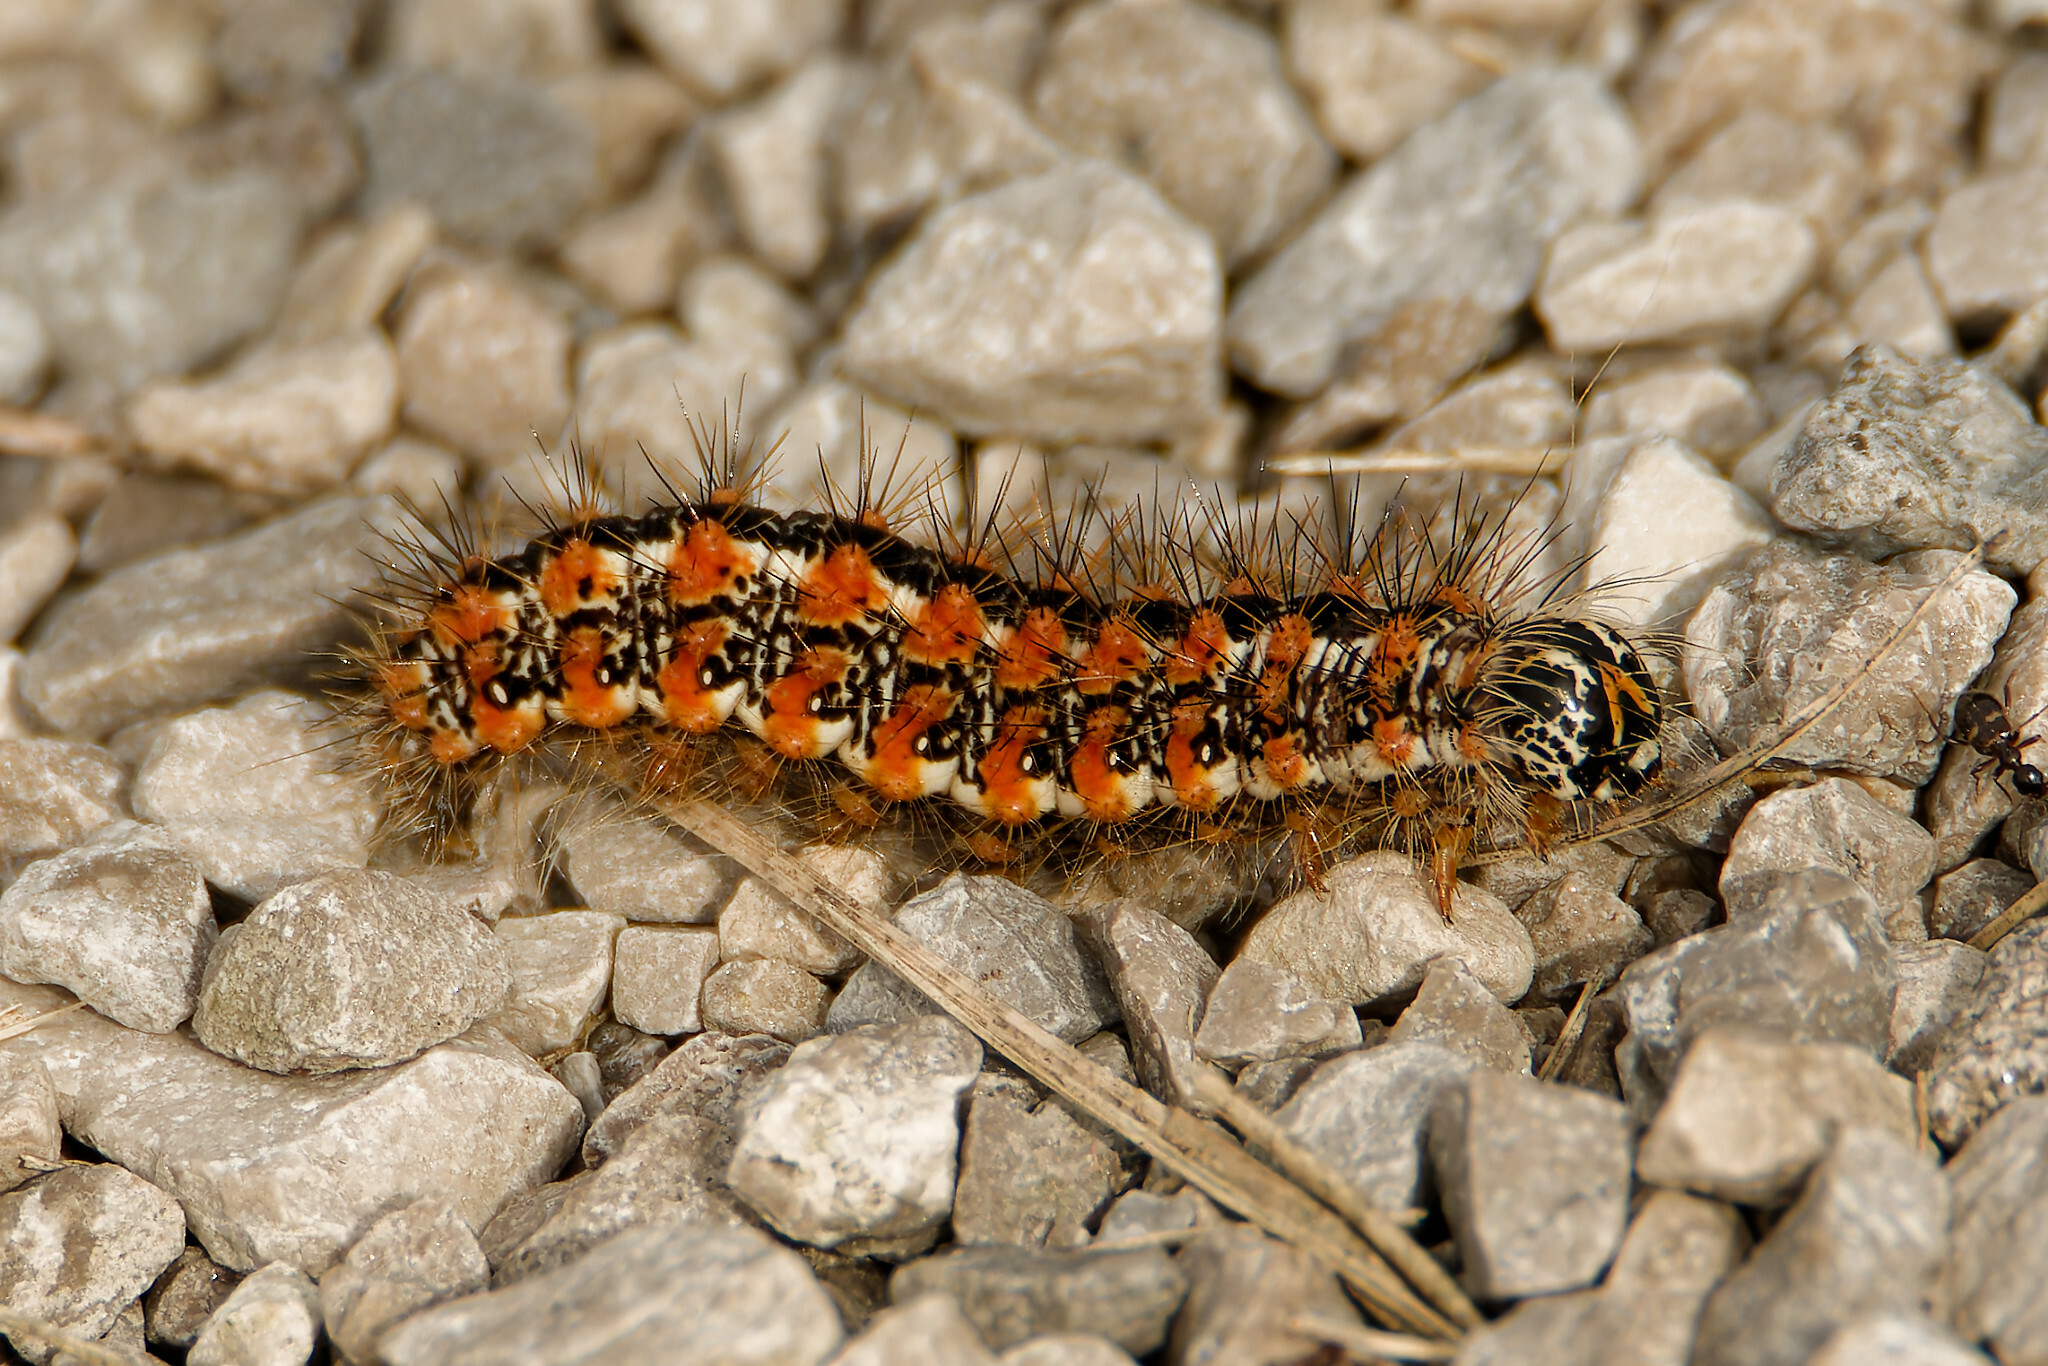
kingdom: Animalia
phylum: Arthropoda
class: Insecta
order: Lepidoptera
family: Noctuidae
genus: Acronicta
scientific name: Acronicta insularis
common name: Henry's marsh moth
